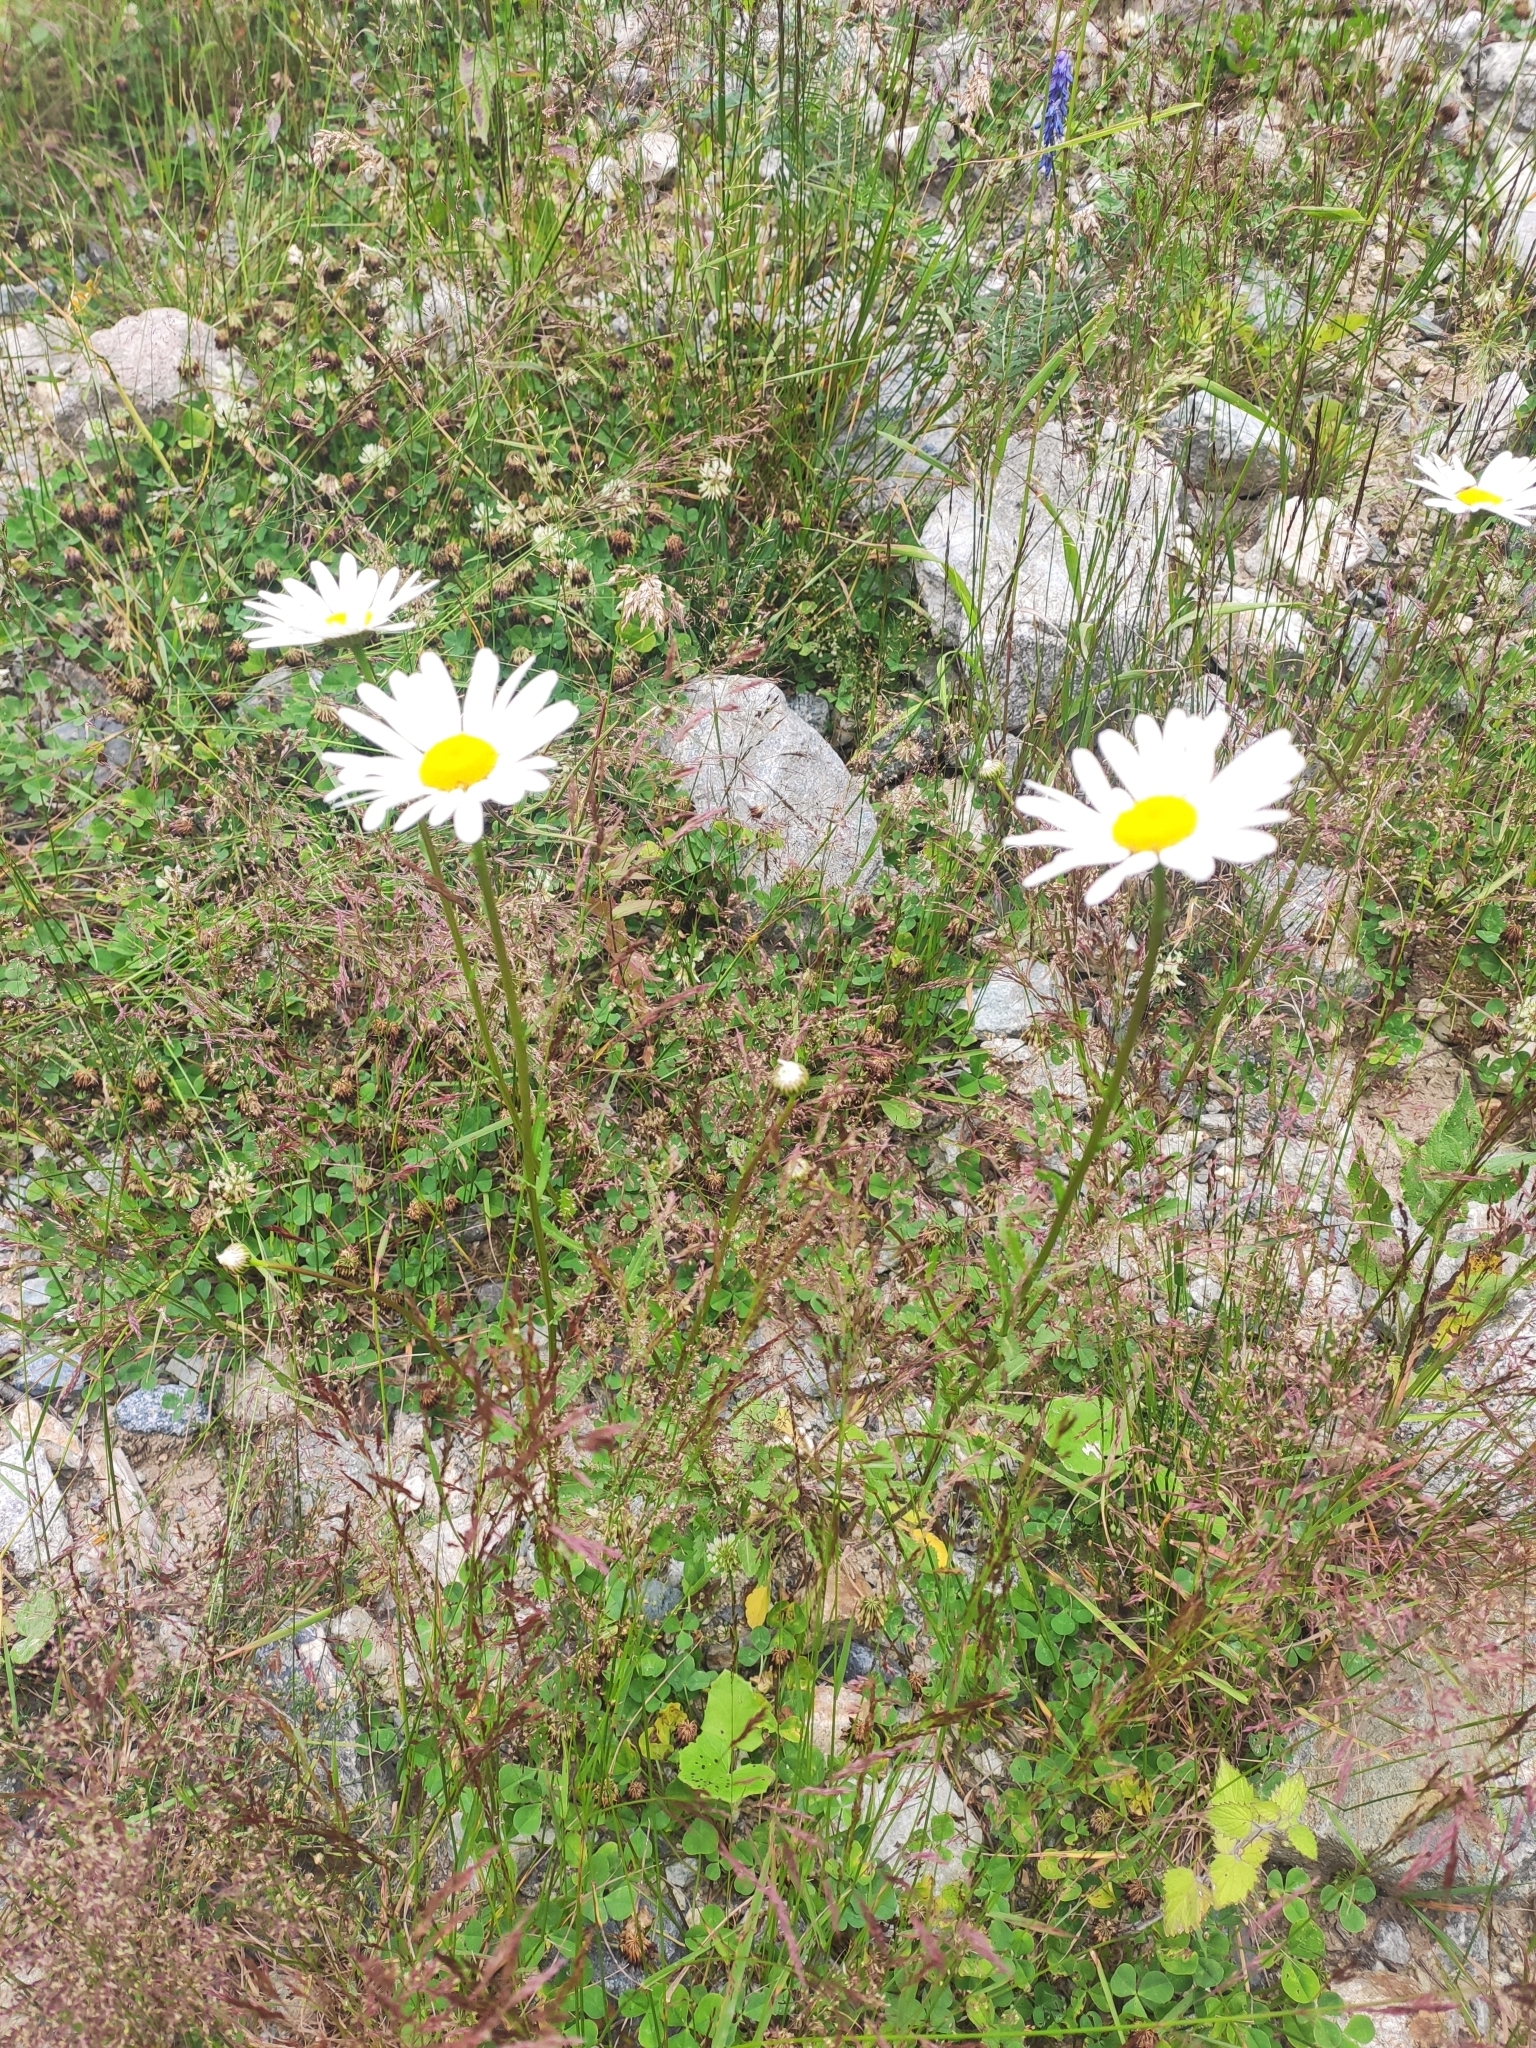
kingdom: Plantae
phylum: Tracheophyta
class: Magnoliopsida
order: Asterales
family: Asteraceae
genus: Leucanthemum
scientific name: Leucanthemum vulgare
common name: Oxeye daisy
